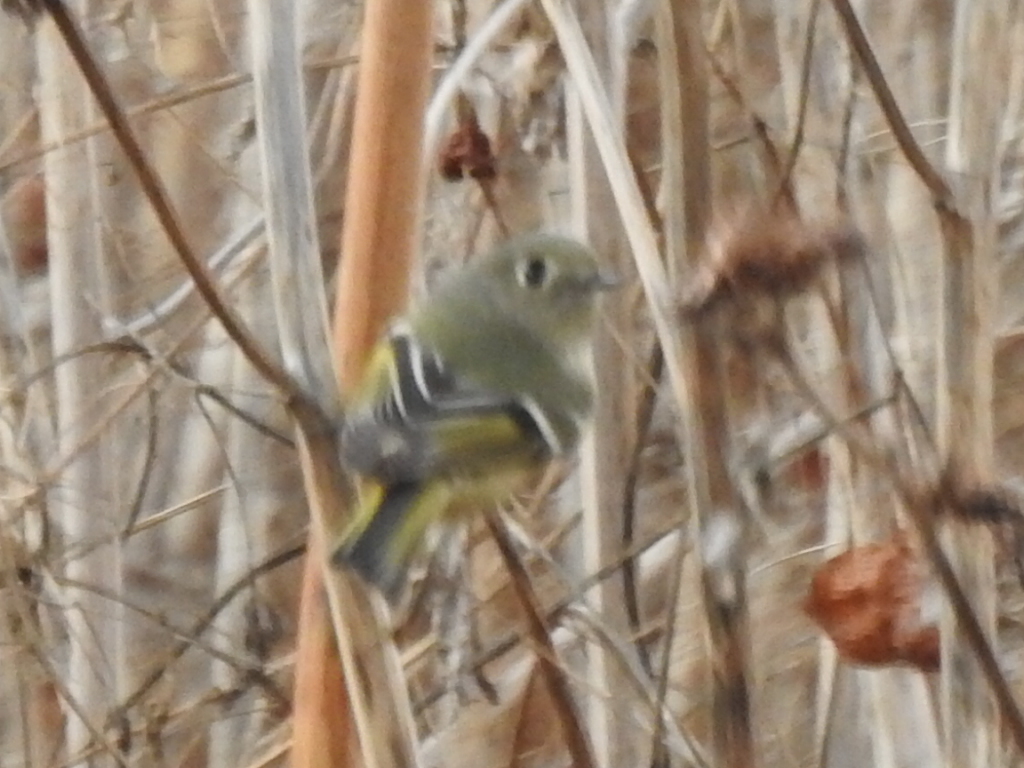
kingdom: Animalia
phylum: Chordata
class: Aves
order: Passeriformes
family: Regulidae
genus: Regulus
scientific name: Regulus calendula
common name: Ruby-crowned kinglet
